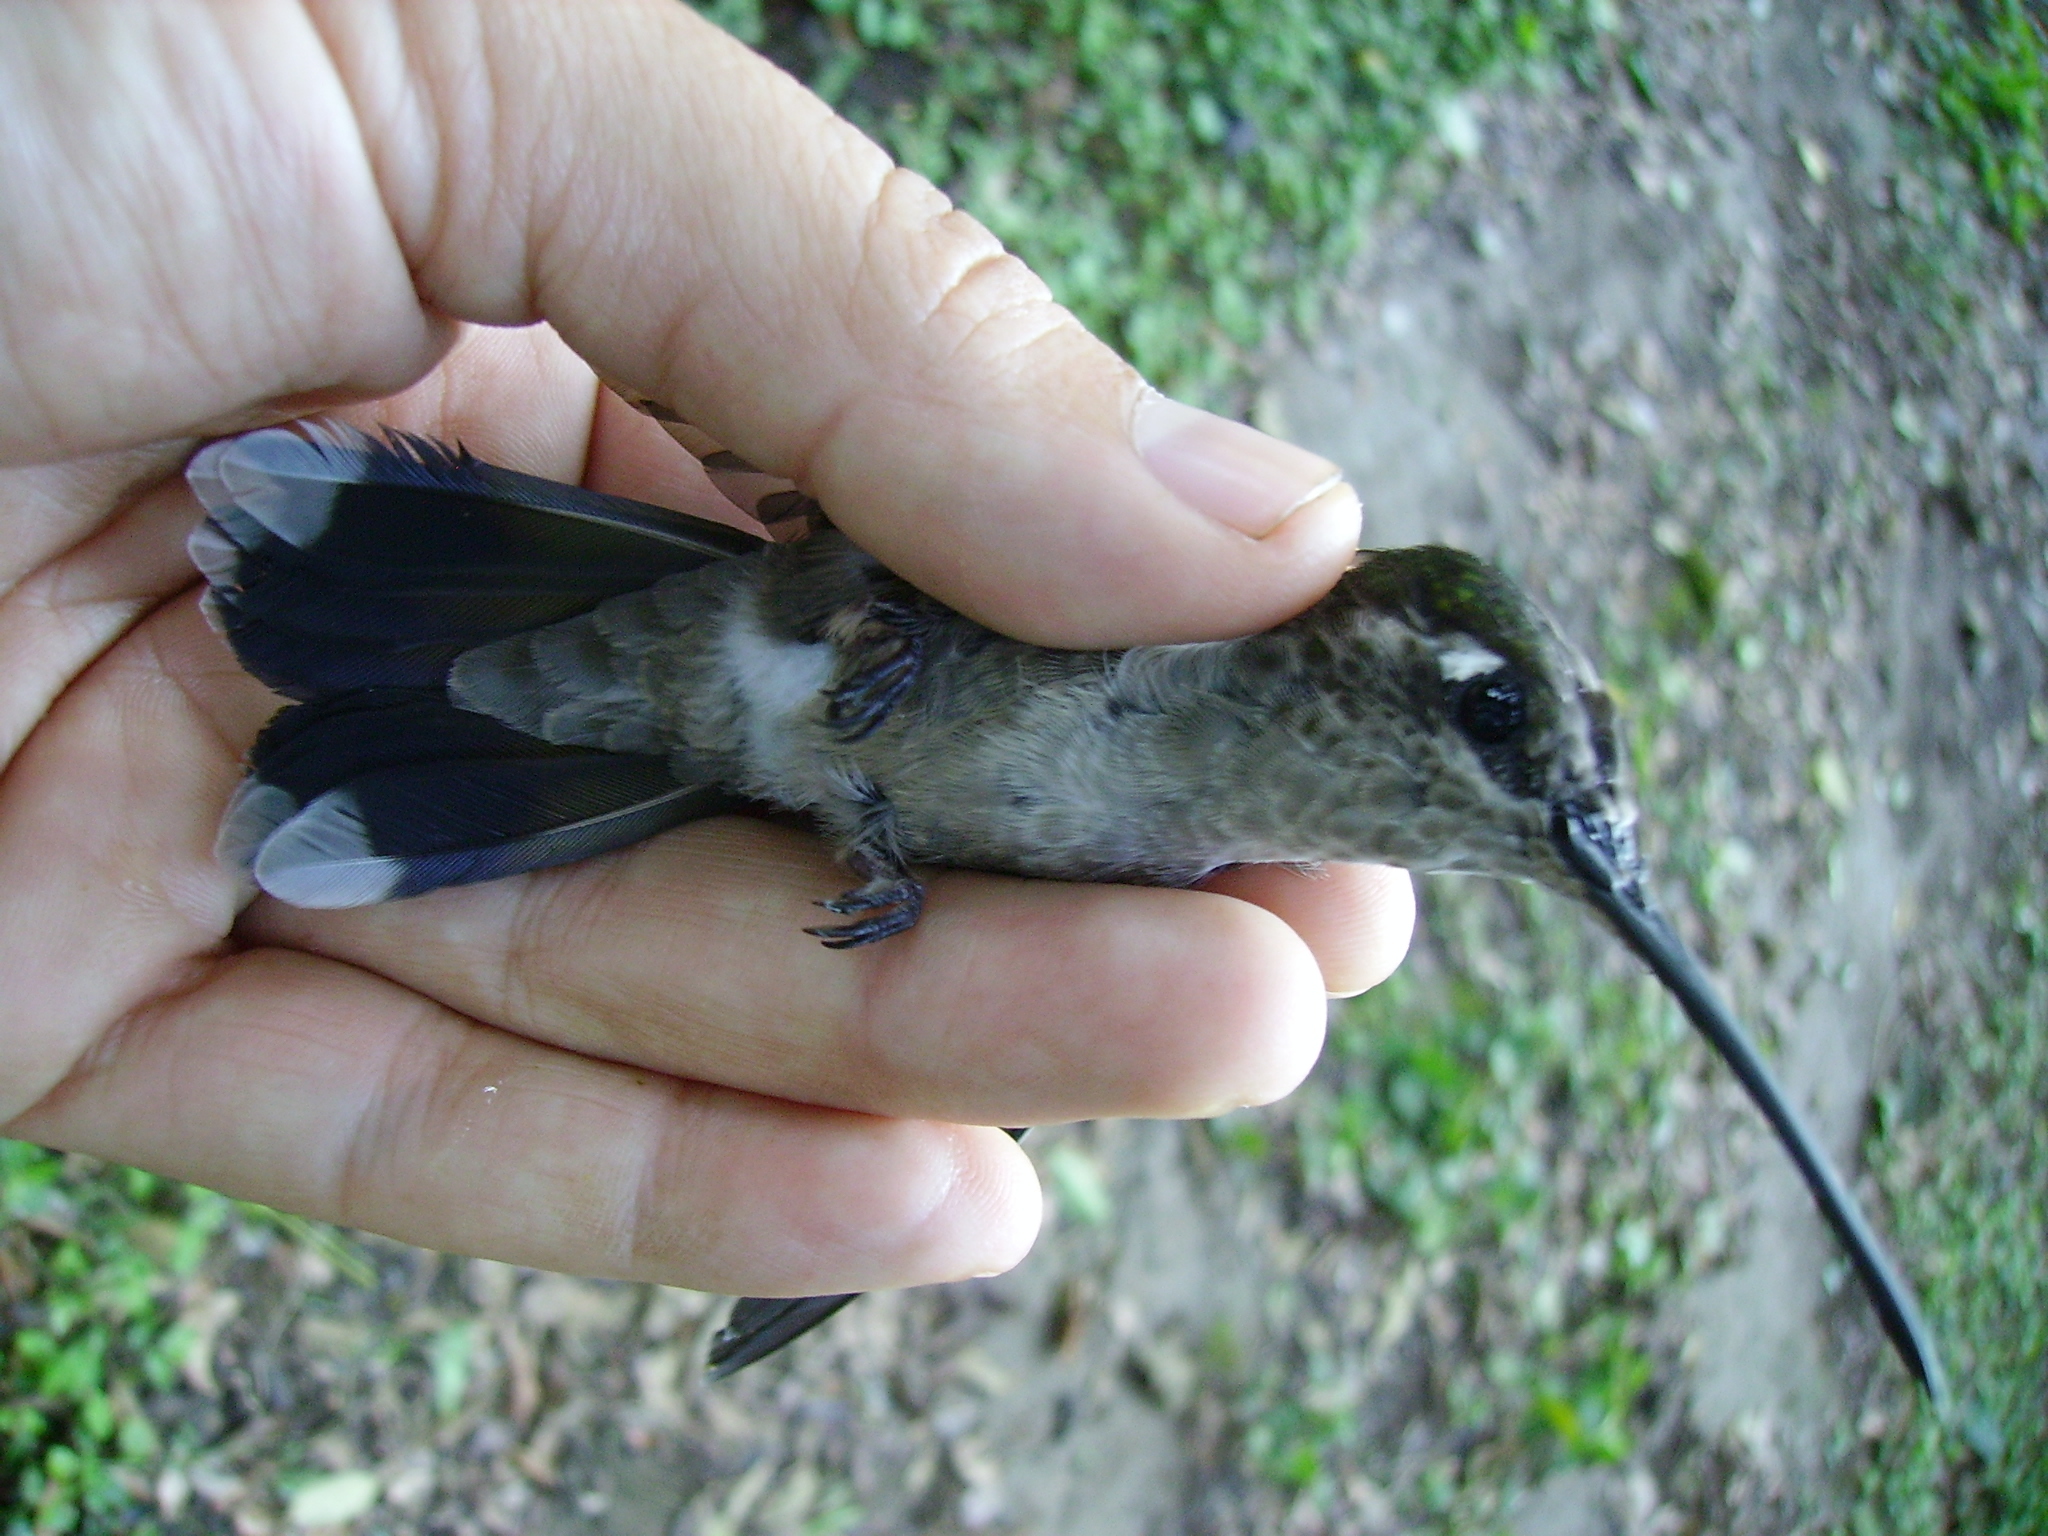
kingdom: Animalia
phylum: Chordata
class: Aves
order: Apodiformes
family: Trochilidae
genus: Heliomaster
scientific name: Heliomaster constantii
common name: Plain-capped starthroat
